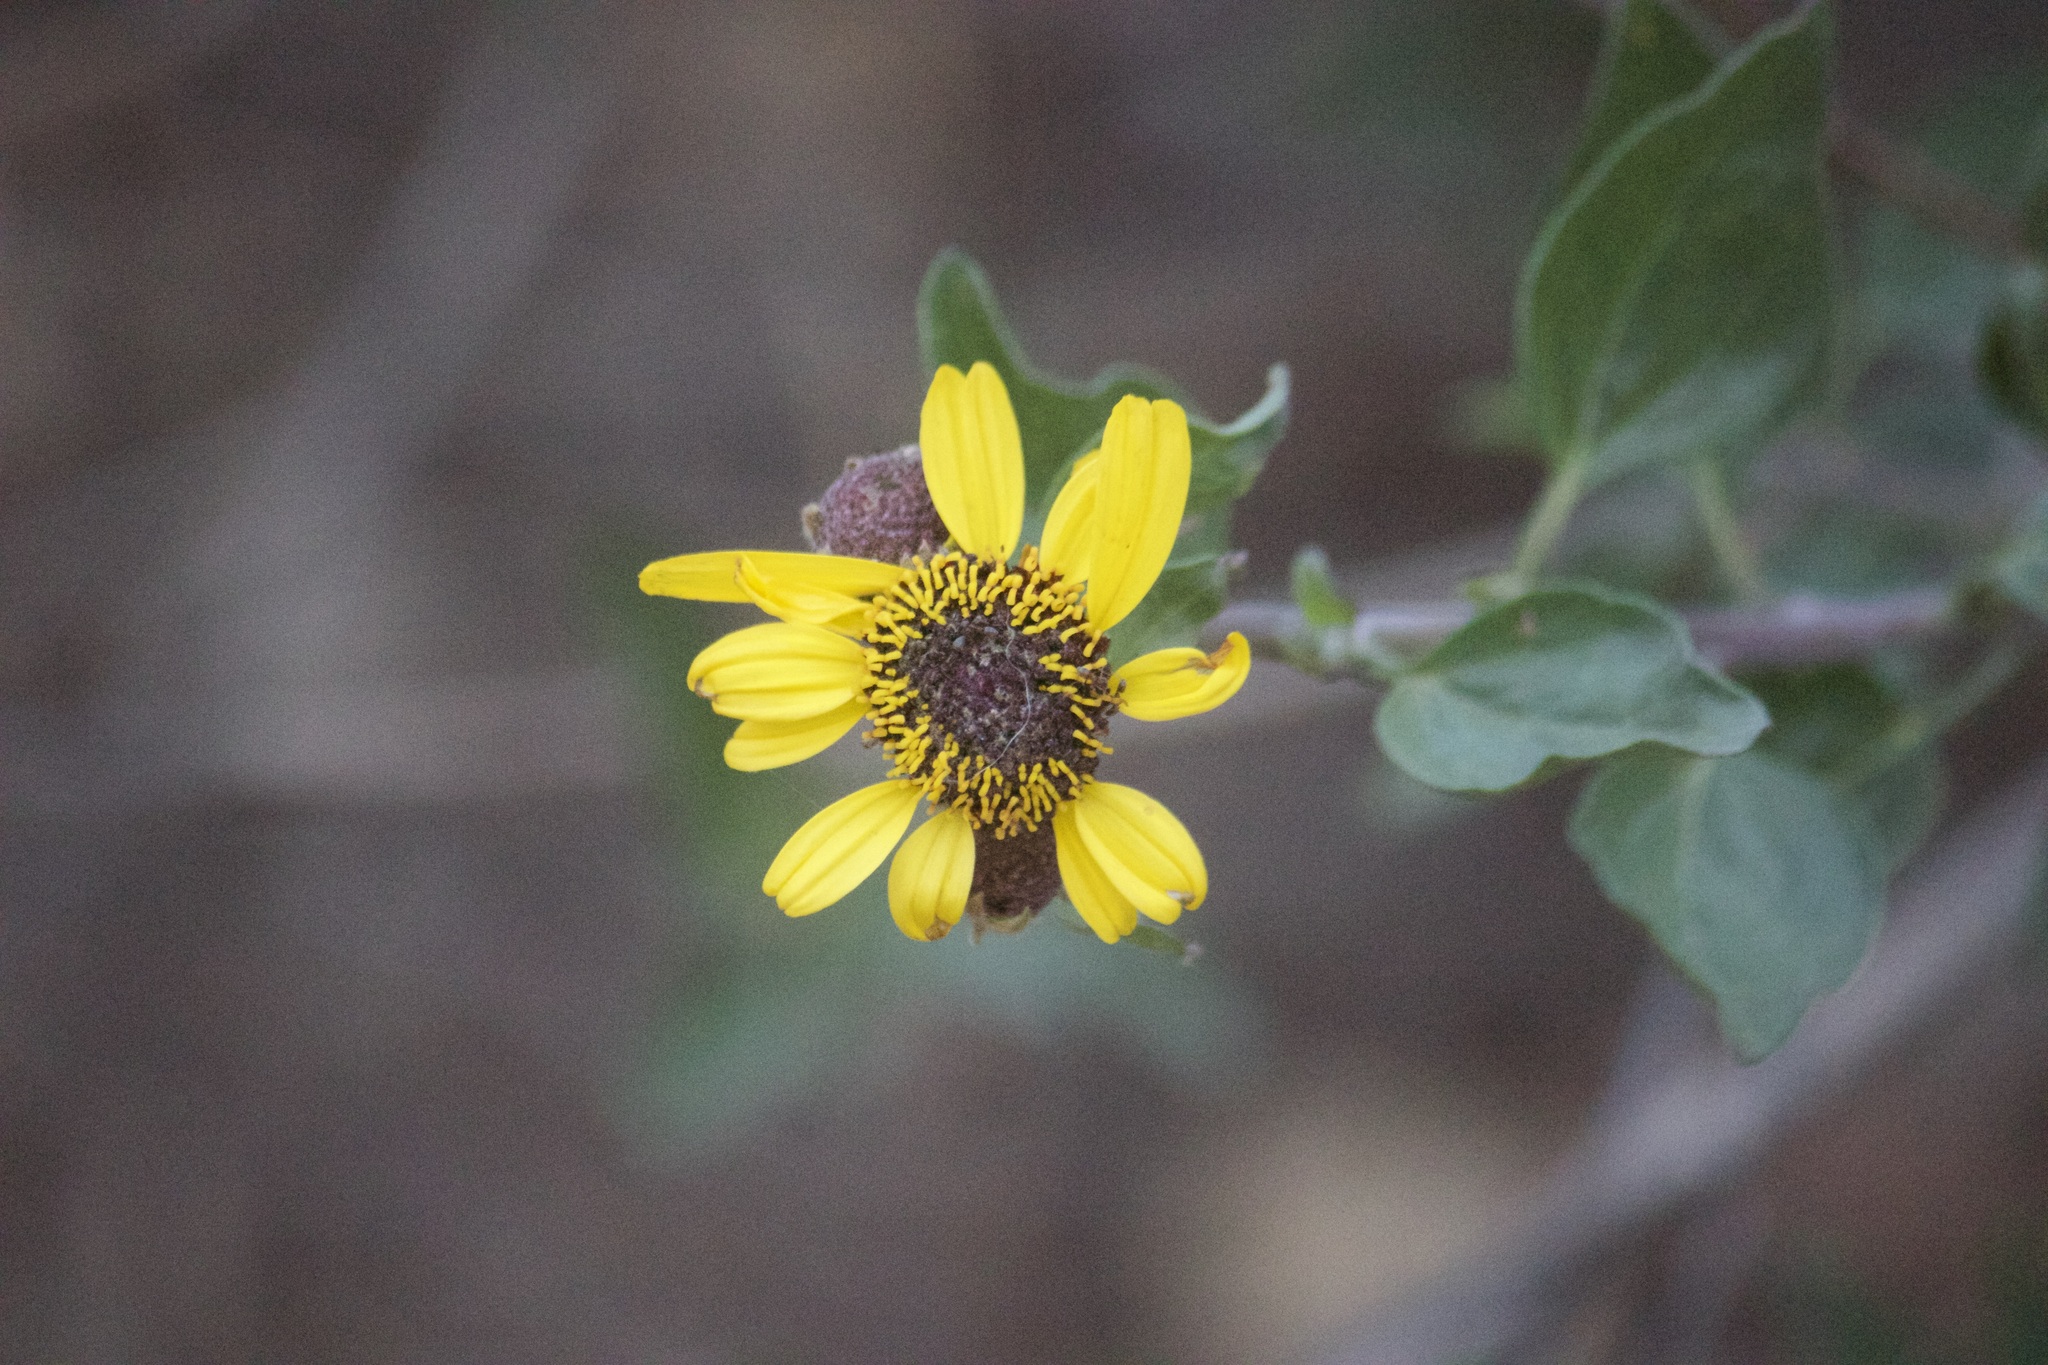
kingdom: Plantae
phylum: Tracheophyta
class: Magnoliopsida
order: Asterales
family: Asteraceae
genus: Encelia
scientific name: Encelia californica
